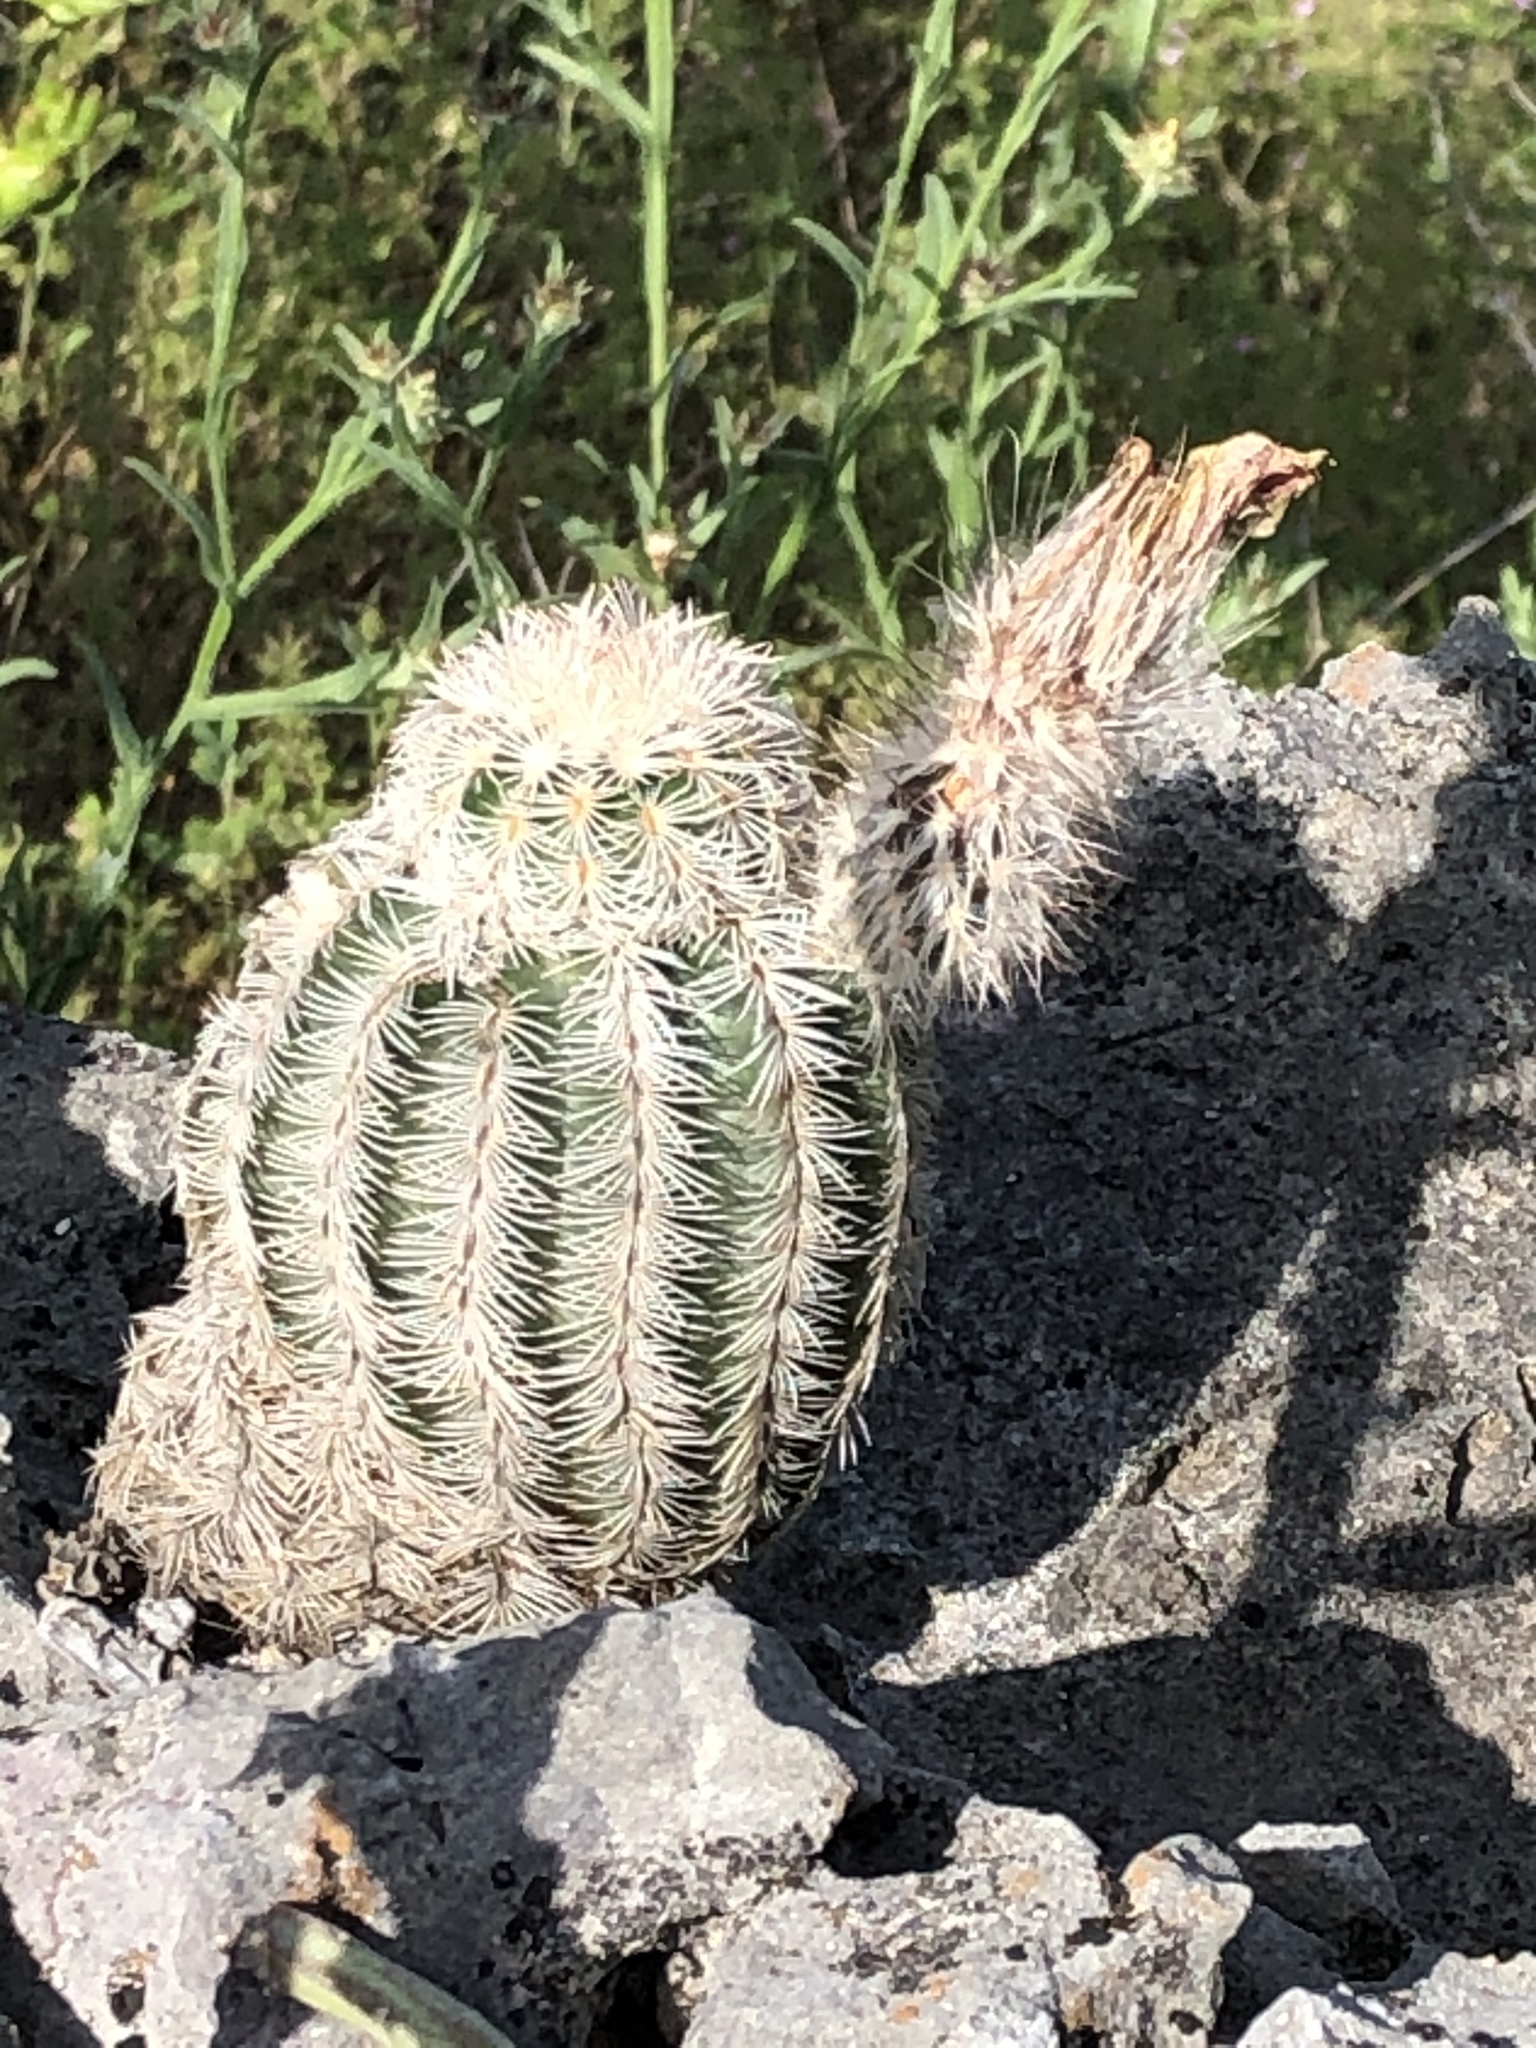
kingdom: Plantae
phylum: Tracheophyta
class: Magnoliopsida
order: Caryophyllales
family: Cactaceae
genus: Echinocereus
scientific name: Echinocereus reichenbachii
